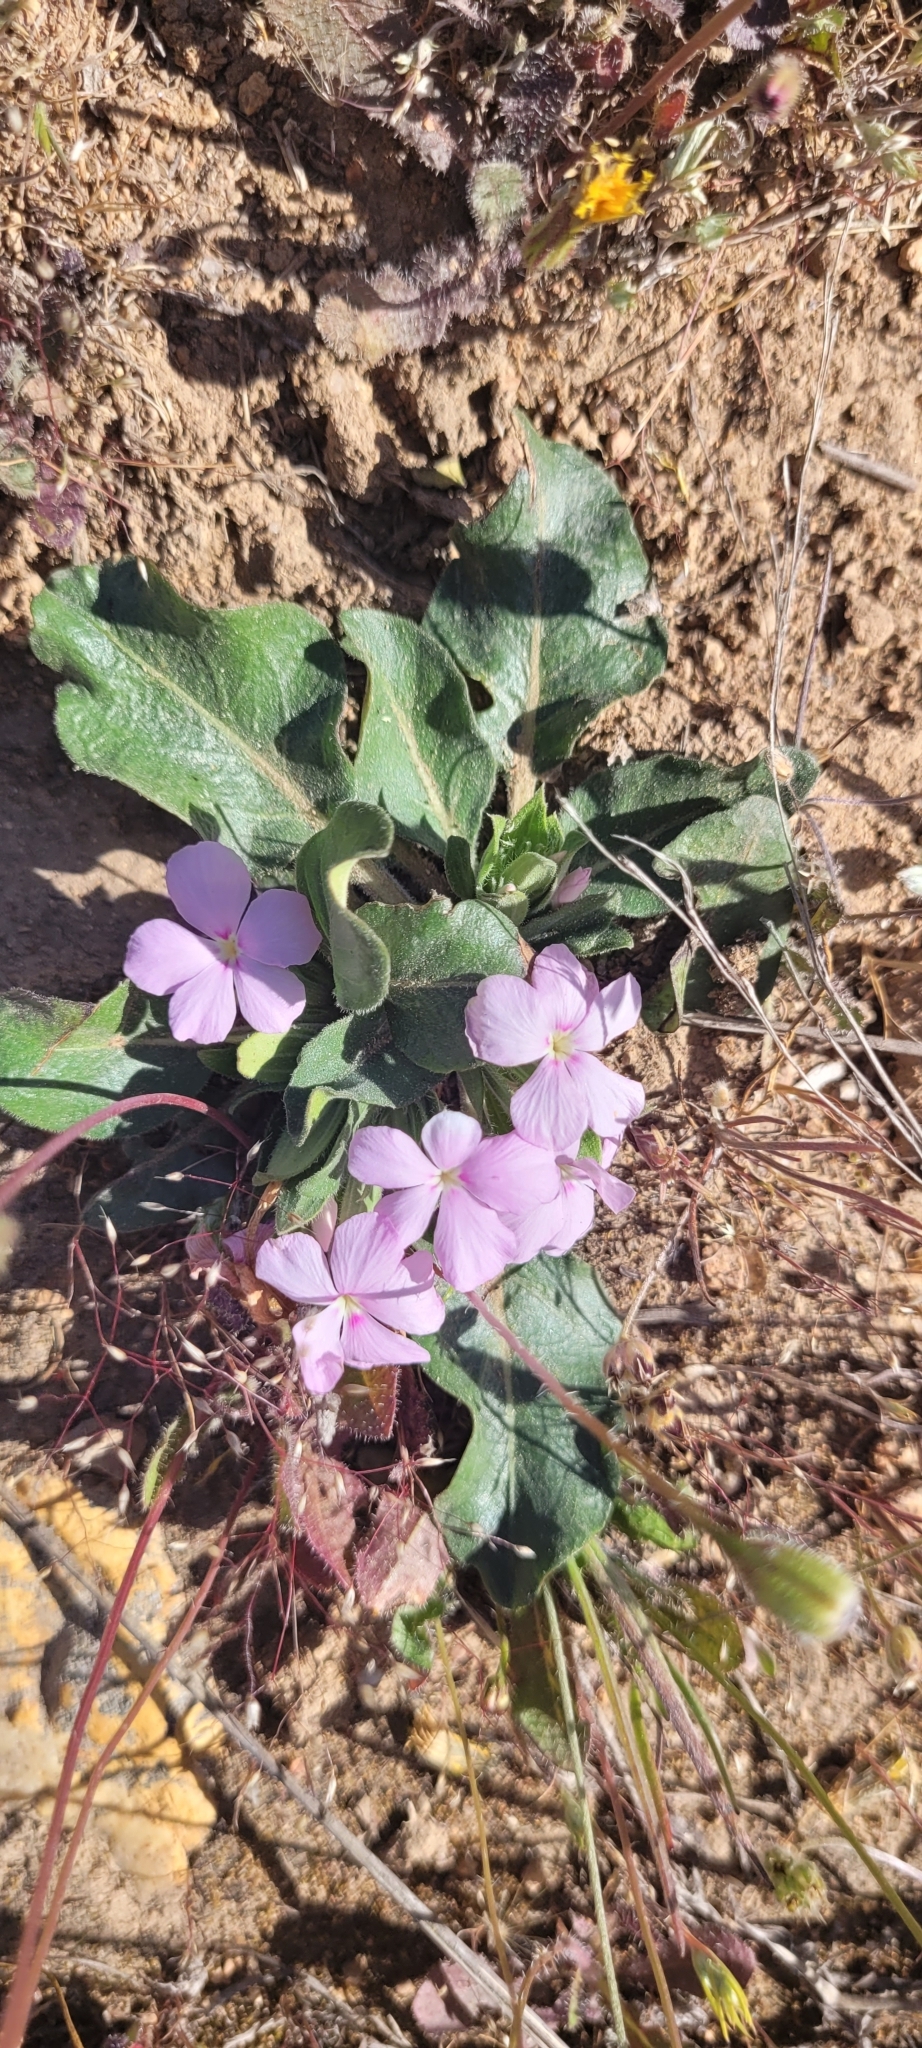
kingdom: Plantae
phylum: Tracheophyta
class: Magnoliopsida
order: Lamiales
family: Acanthaceae
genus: Stenandrium
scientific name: Stenandrium dulce
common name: Pinklet
